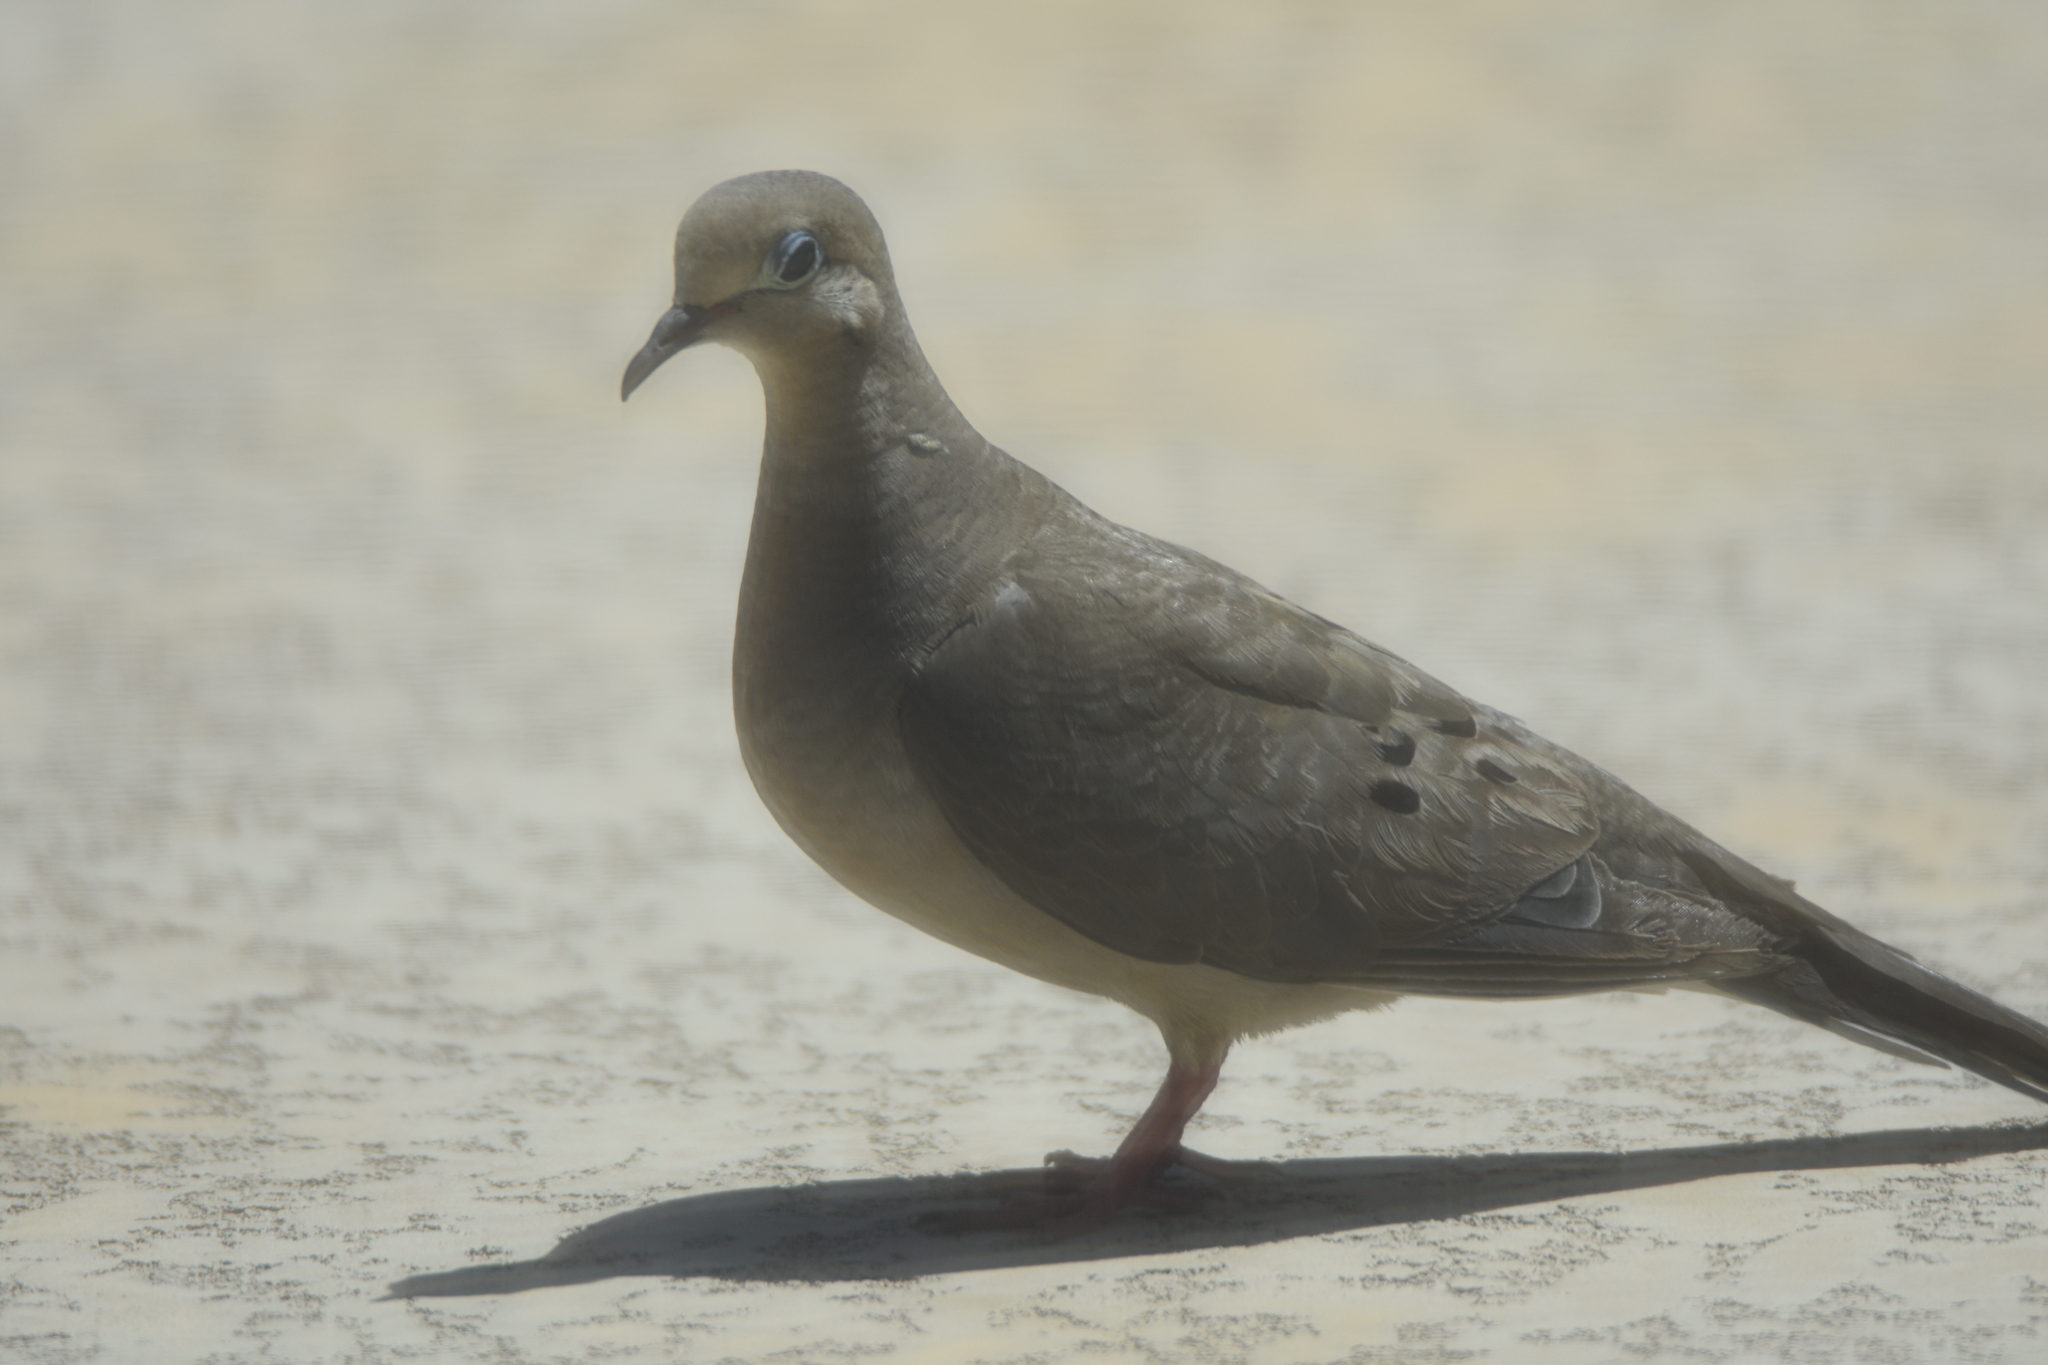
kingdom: Animalia
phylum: Chordata
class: Aves
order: Columbiformes
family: Columbidae
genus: Zenaida
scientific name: Zenaida macroura
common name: Mourning dove
